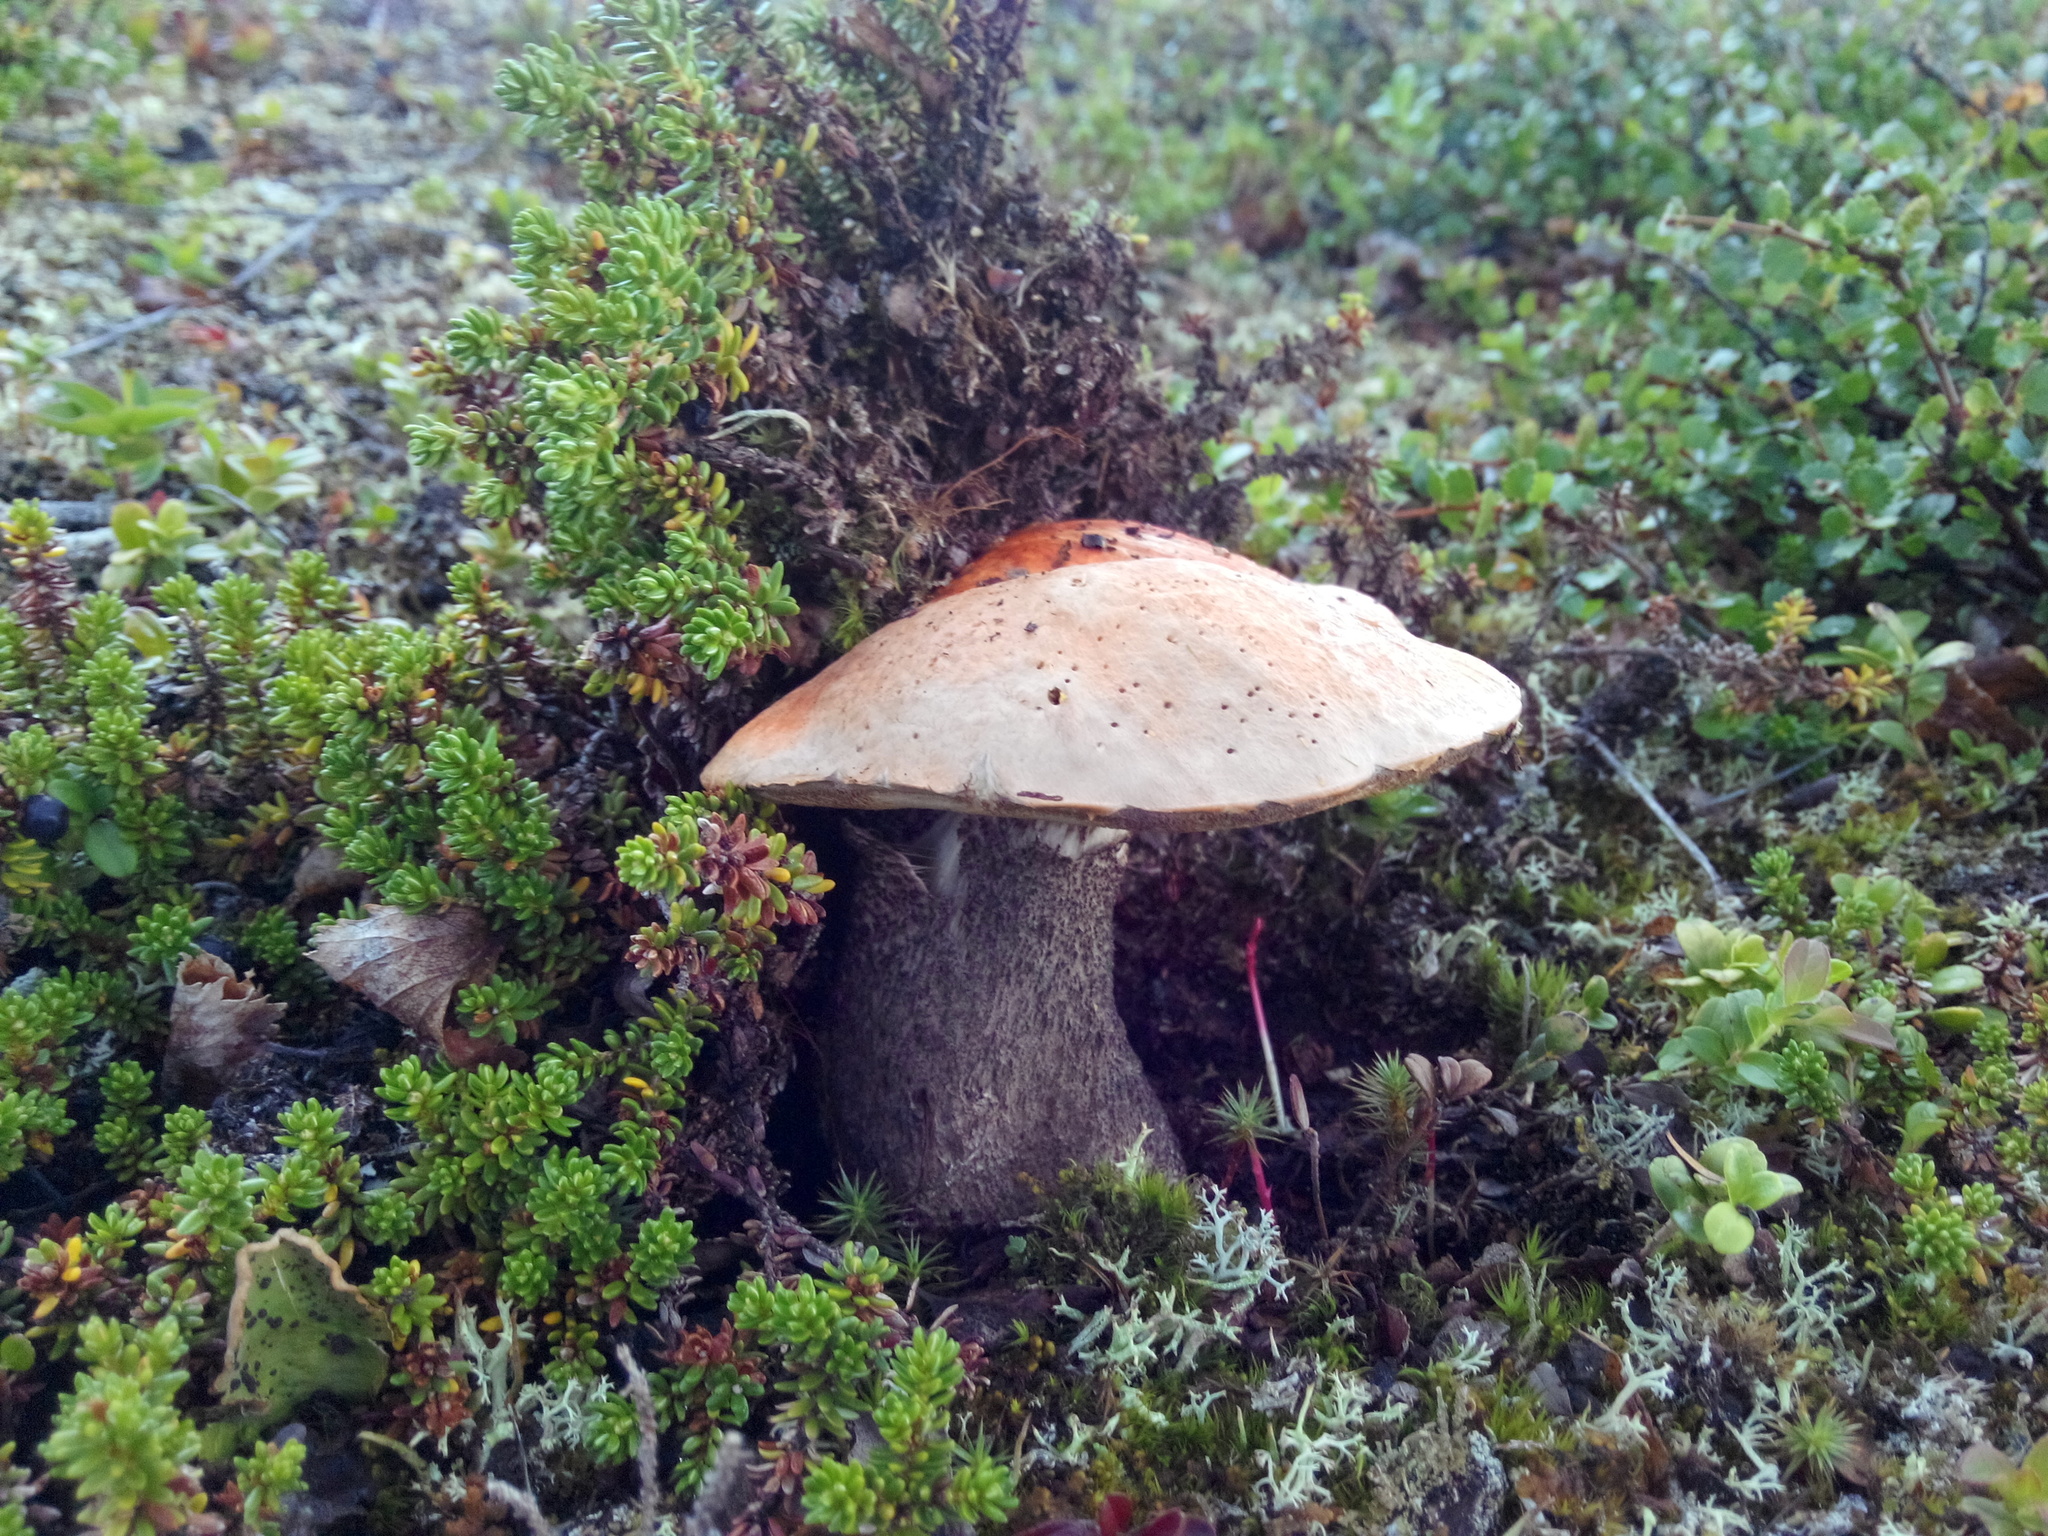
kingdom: Fungi
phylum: Basidiomycota
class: Agaricomycetes
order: Boletales
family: Boletaceae
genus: Leccinum
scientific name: Leccinum versipelle
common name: Orange birch bolete
